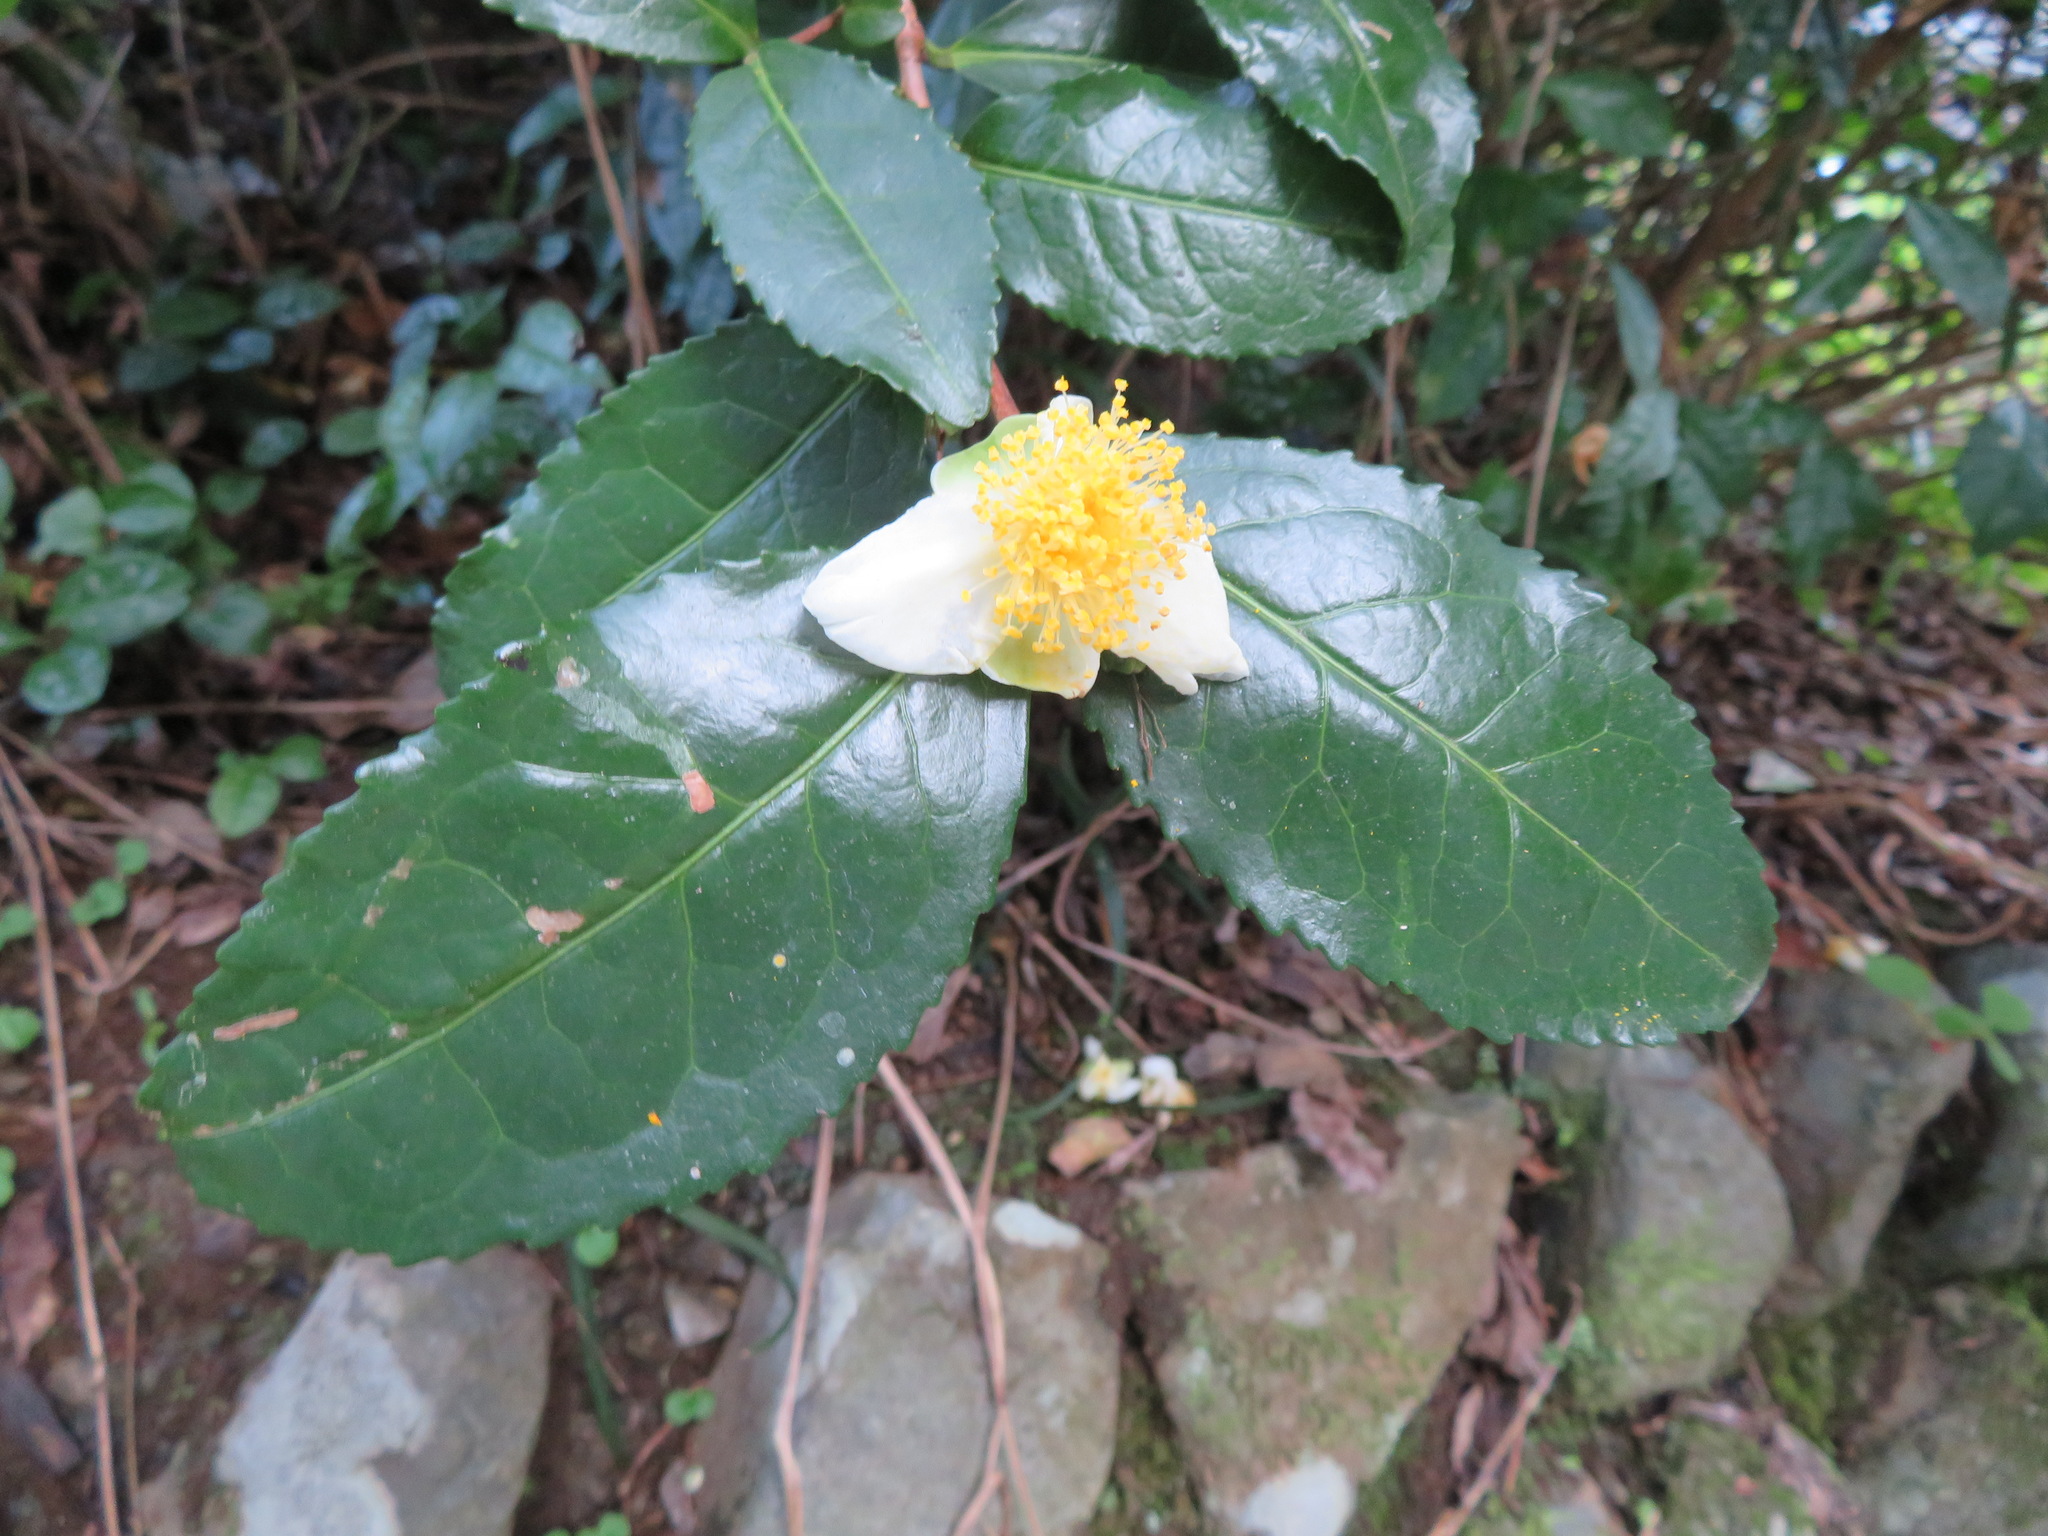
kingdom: Plantae
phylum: Tracheophyta
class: Magnoliopsida
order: Ericales
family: Theaceae
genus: Camellia
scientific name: Camellia sinensis
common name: Tea
